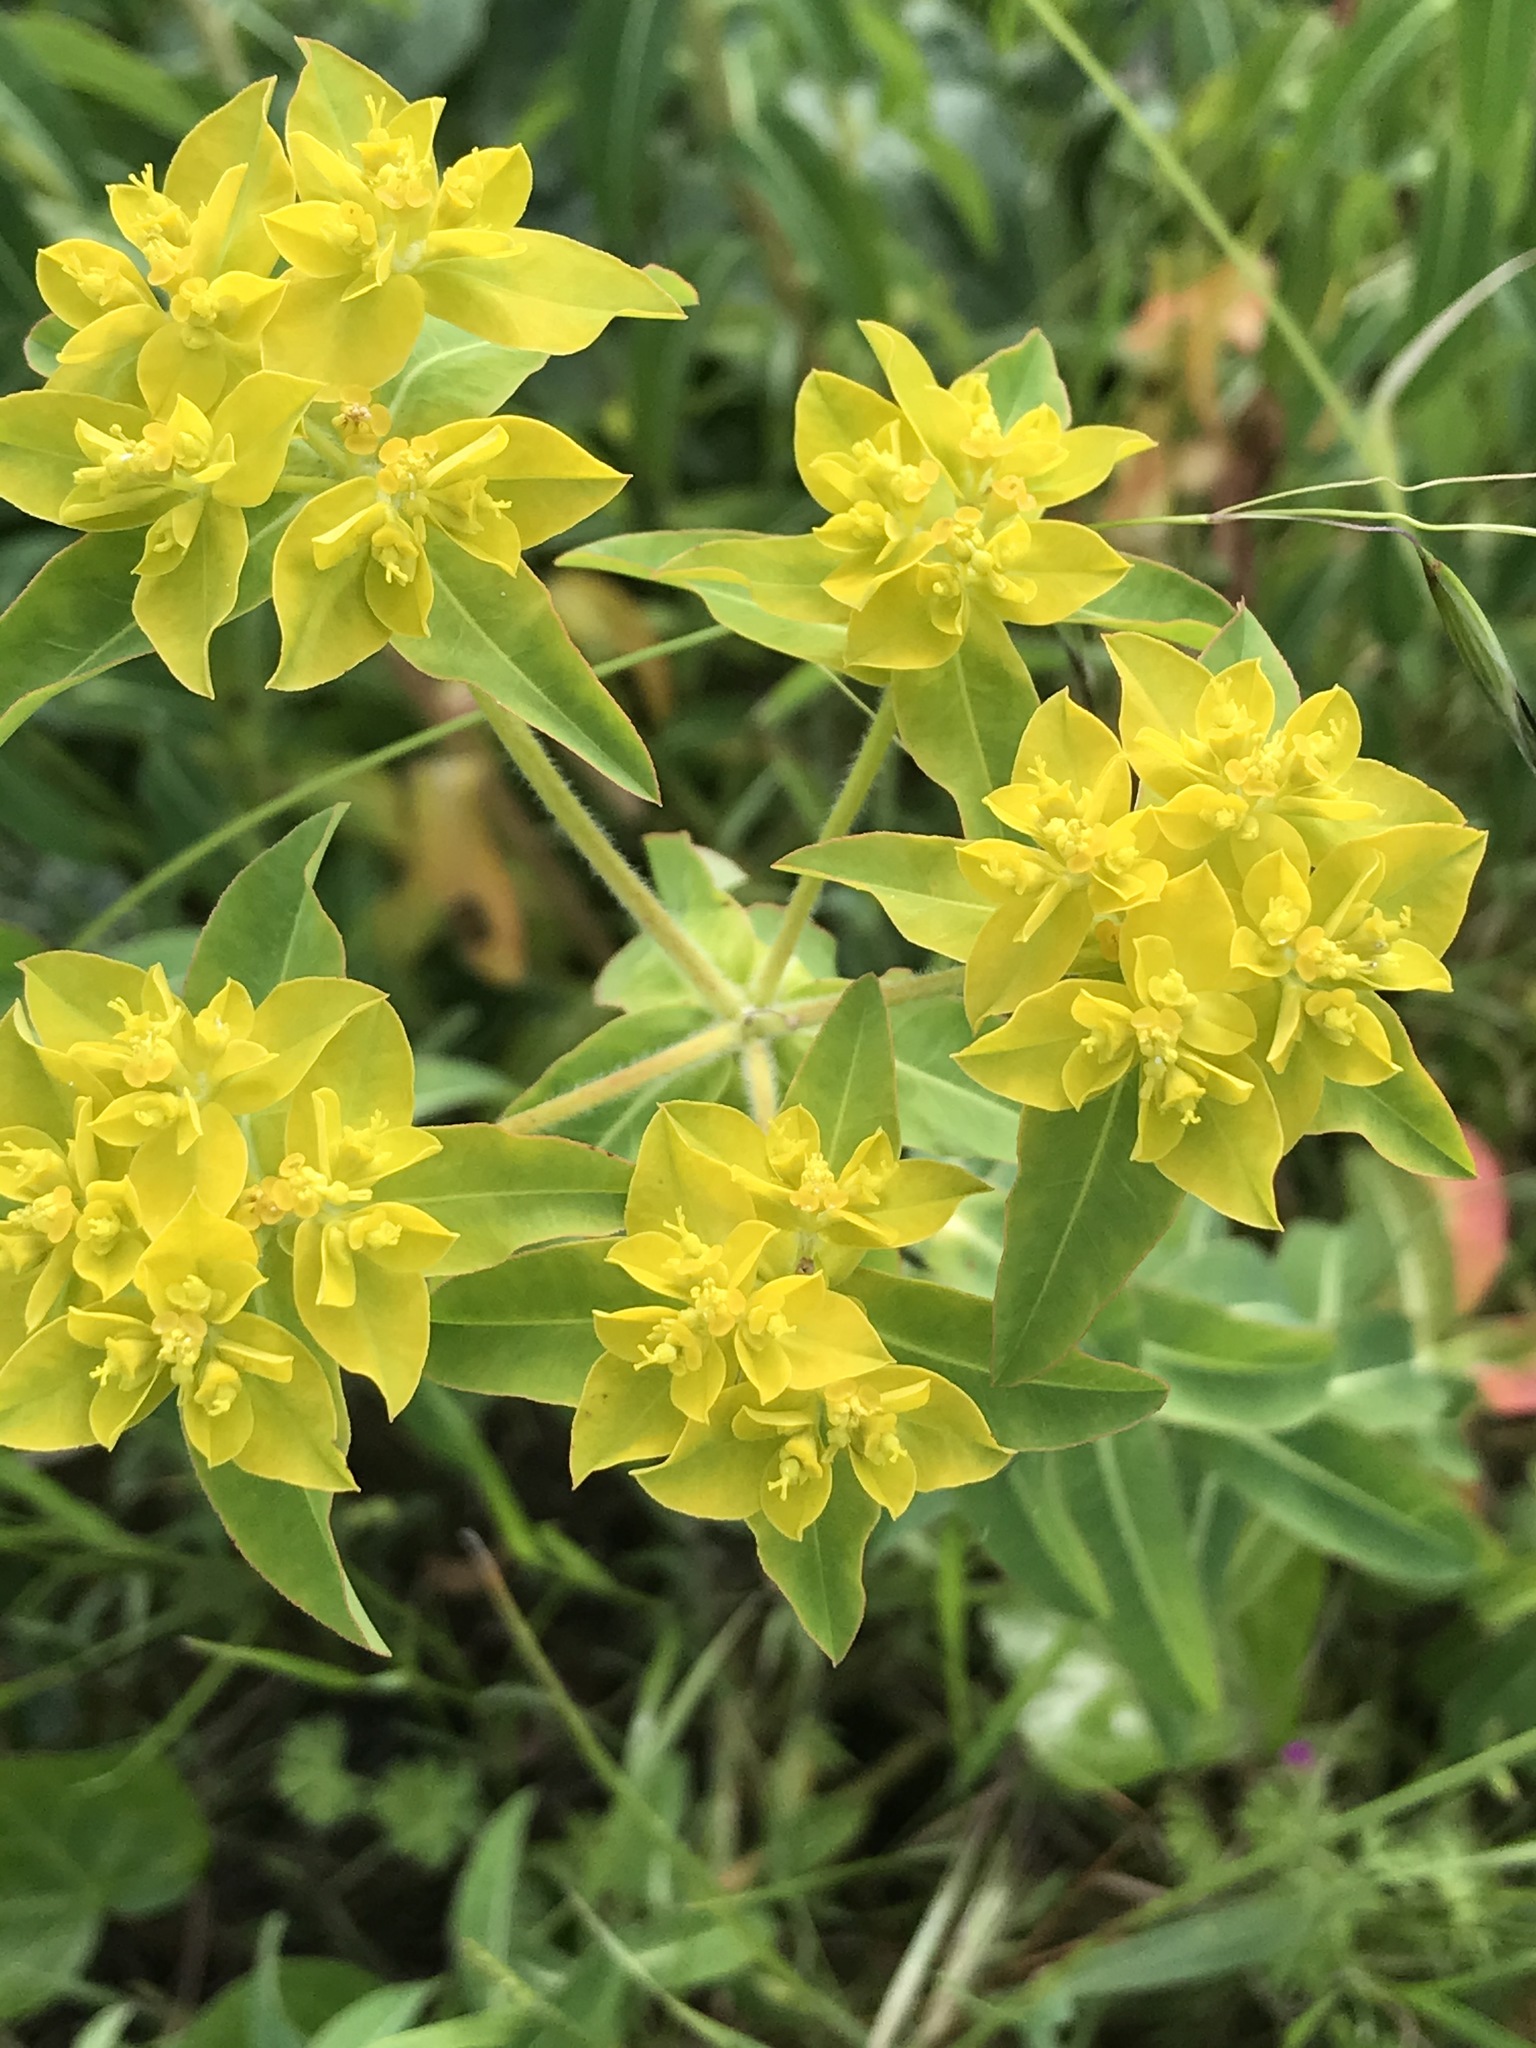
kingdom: Plantae
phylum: Tracheophyta
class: Magnoliopsida
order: Malpighiales
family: Euphorbiaceae
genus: Euphorbia
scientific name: Euphorbia oblongata
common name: Balkan spurge
